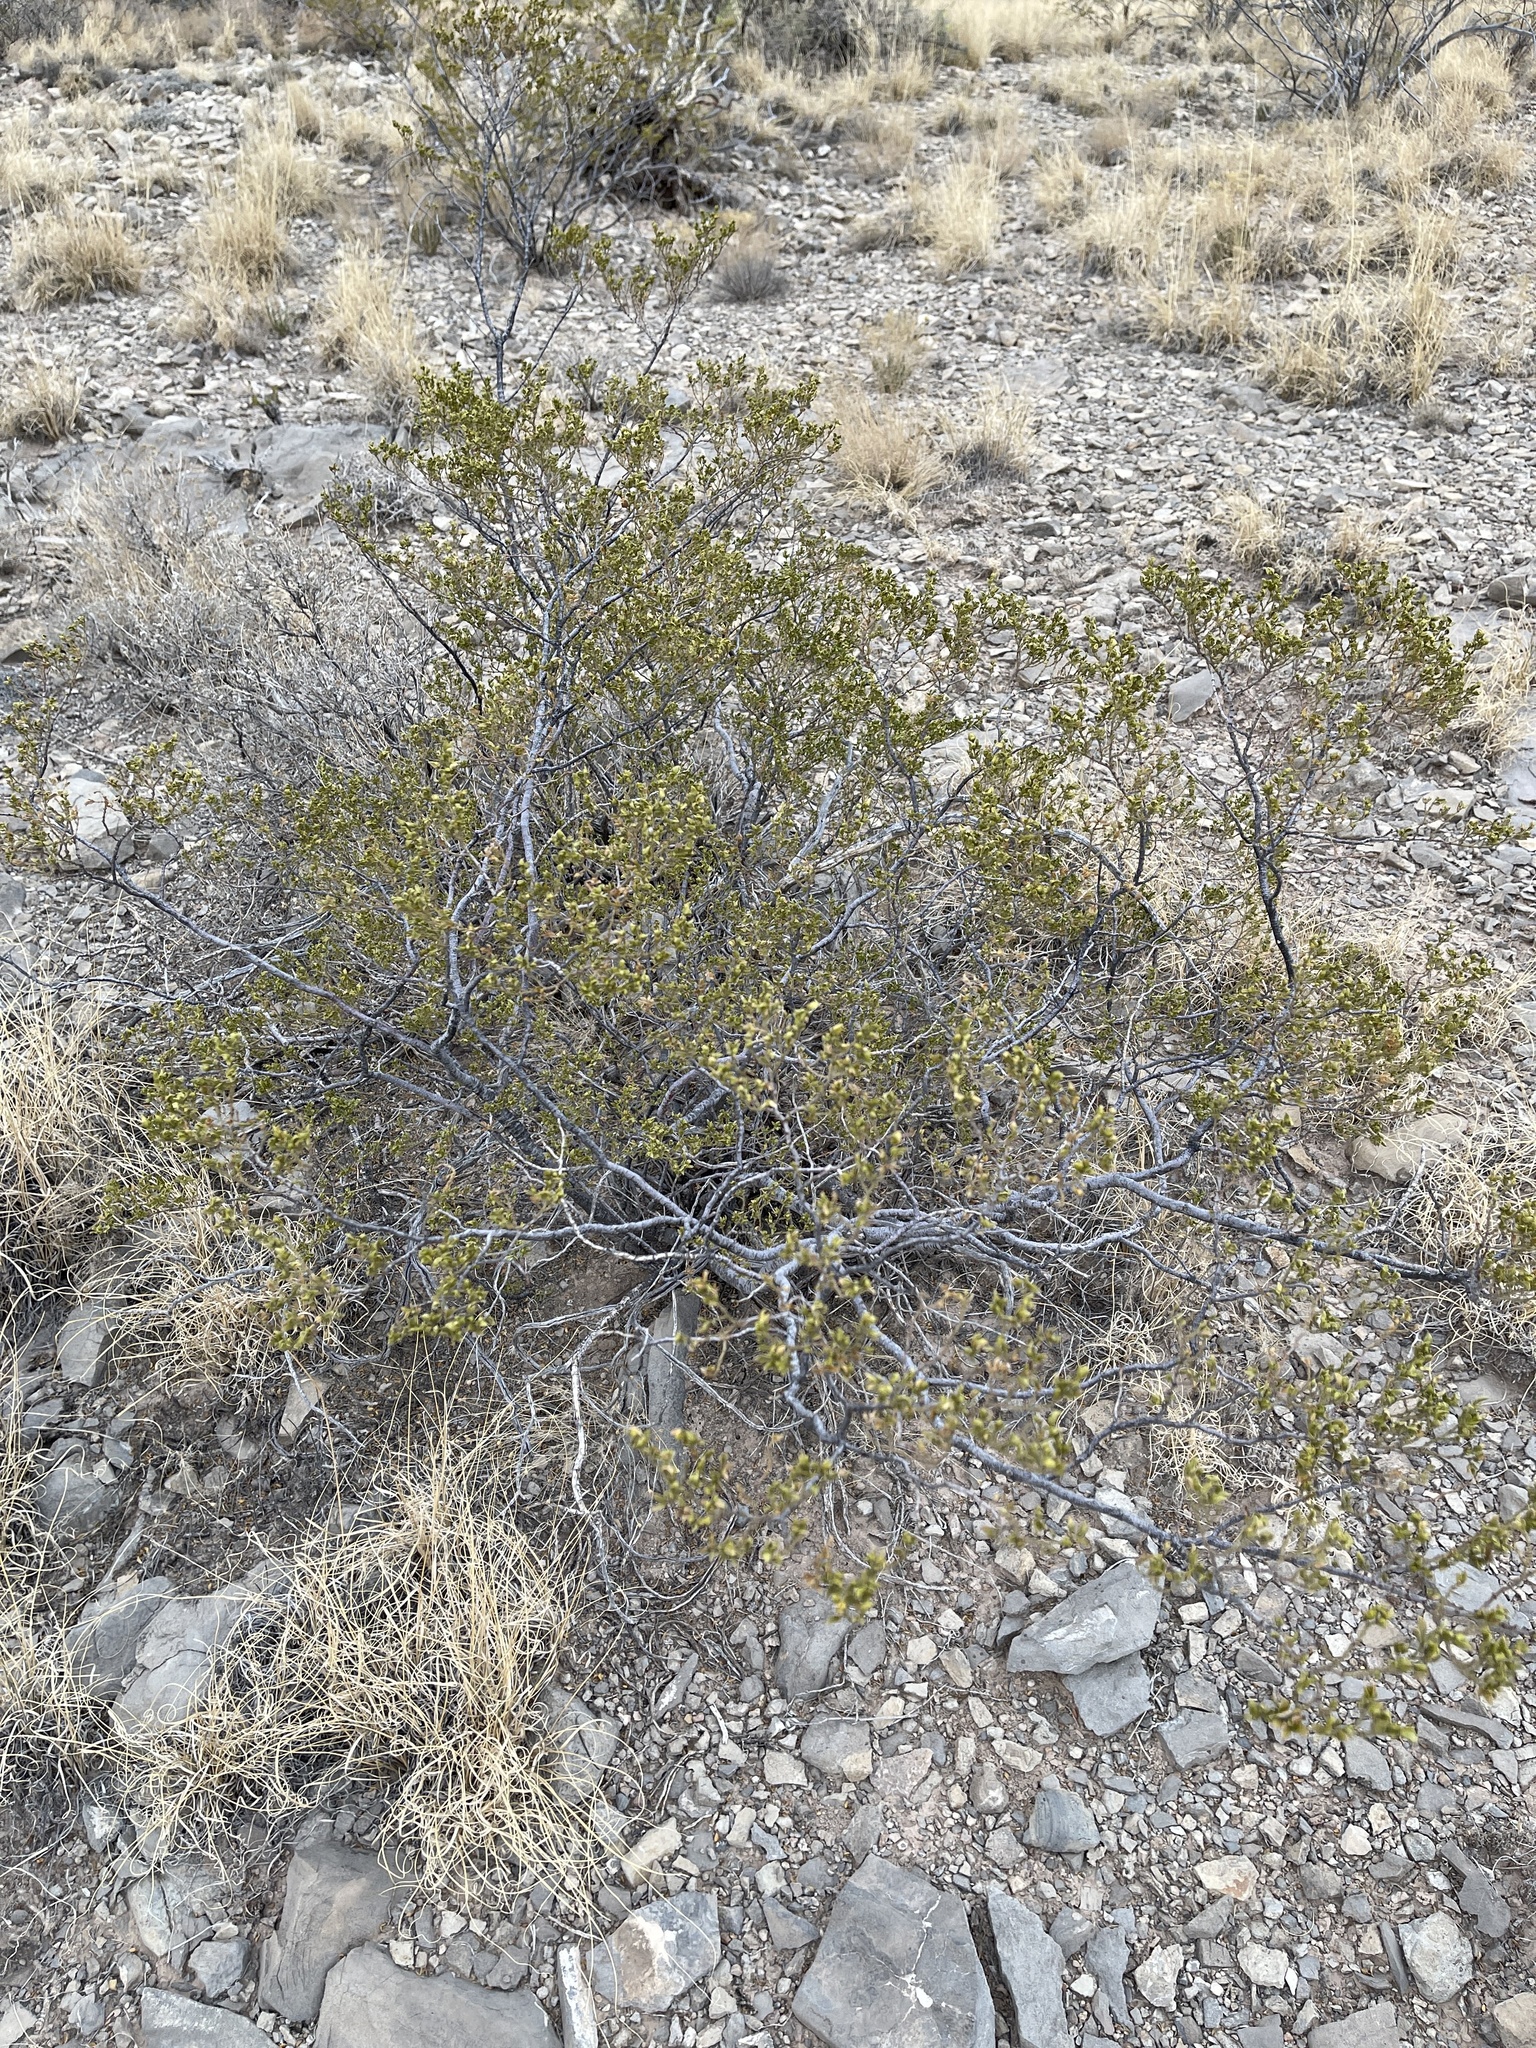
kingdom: Plantae
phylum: Tracheophyta
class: Magnoliopsida
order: Zygophyllales
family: Zygophyllaceae
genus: Larrea
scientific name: Larrea tridentata
